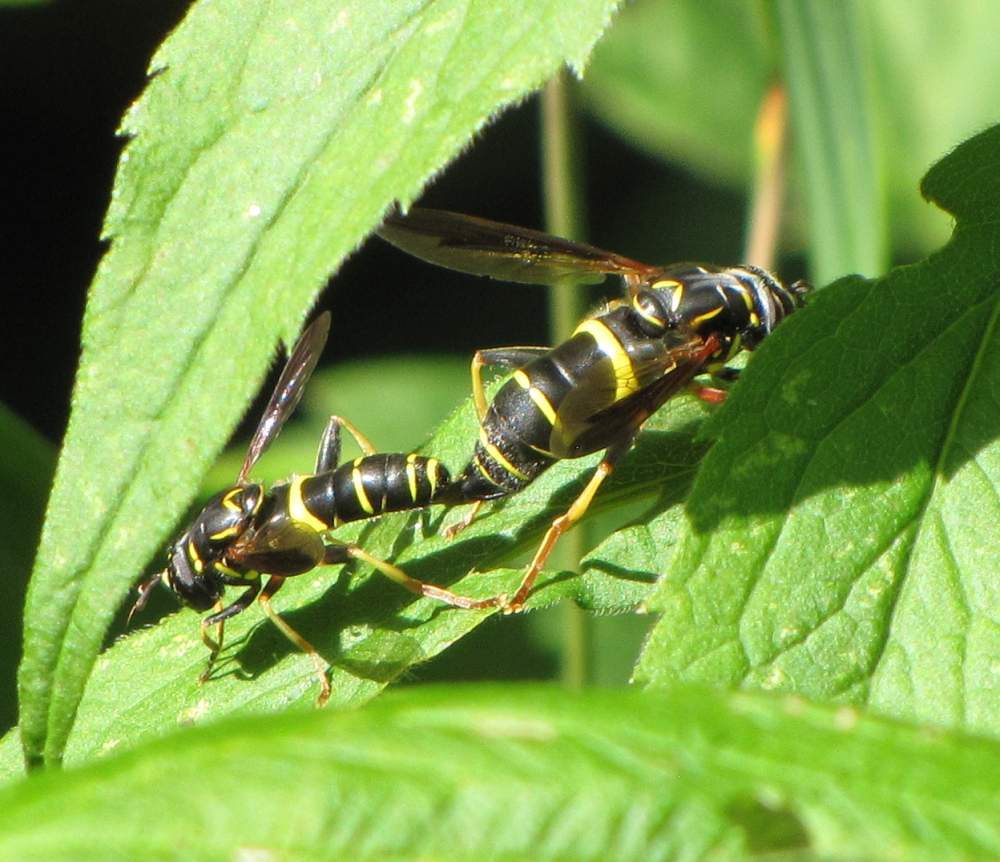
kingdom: Animalia
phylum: Arthropoda
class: Insecta
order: Diptera
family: Syrphidae
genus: Spilomyia
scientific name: Spilomyia sayi
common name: Four-lined hornet fly
